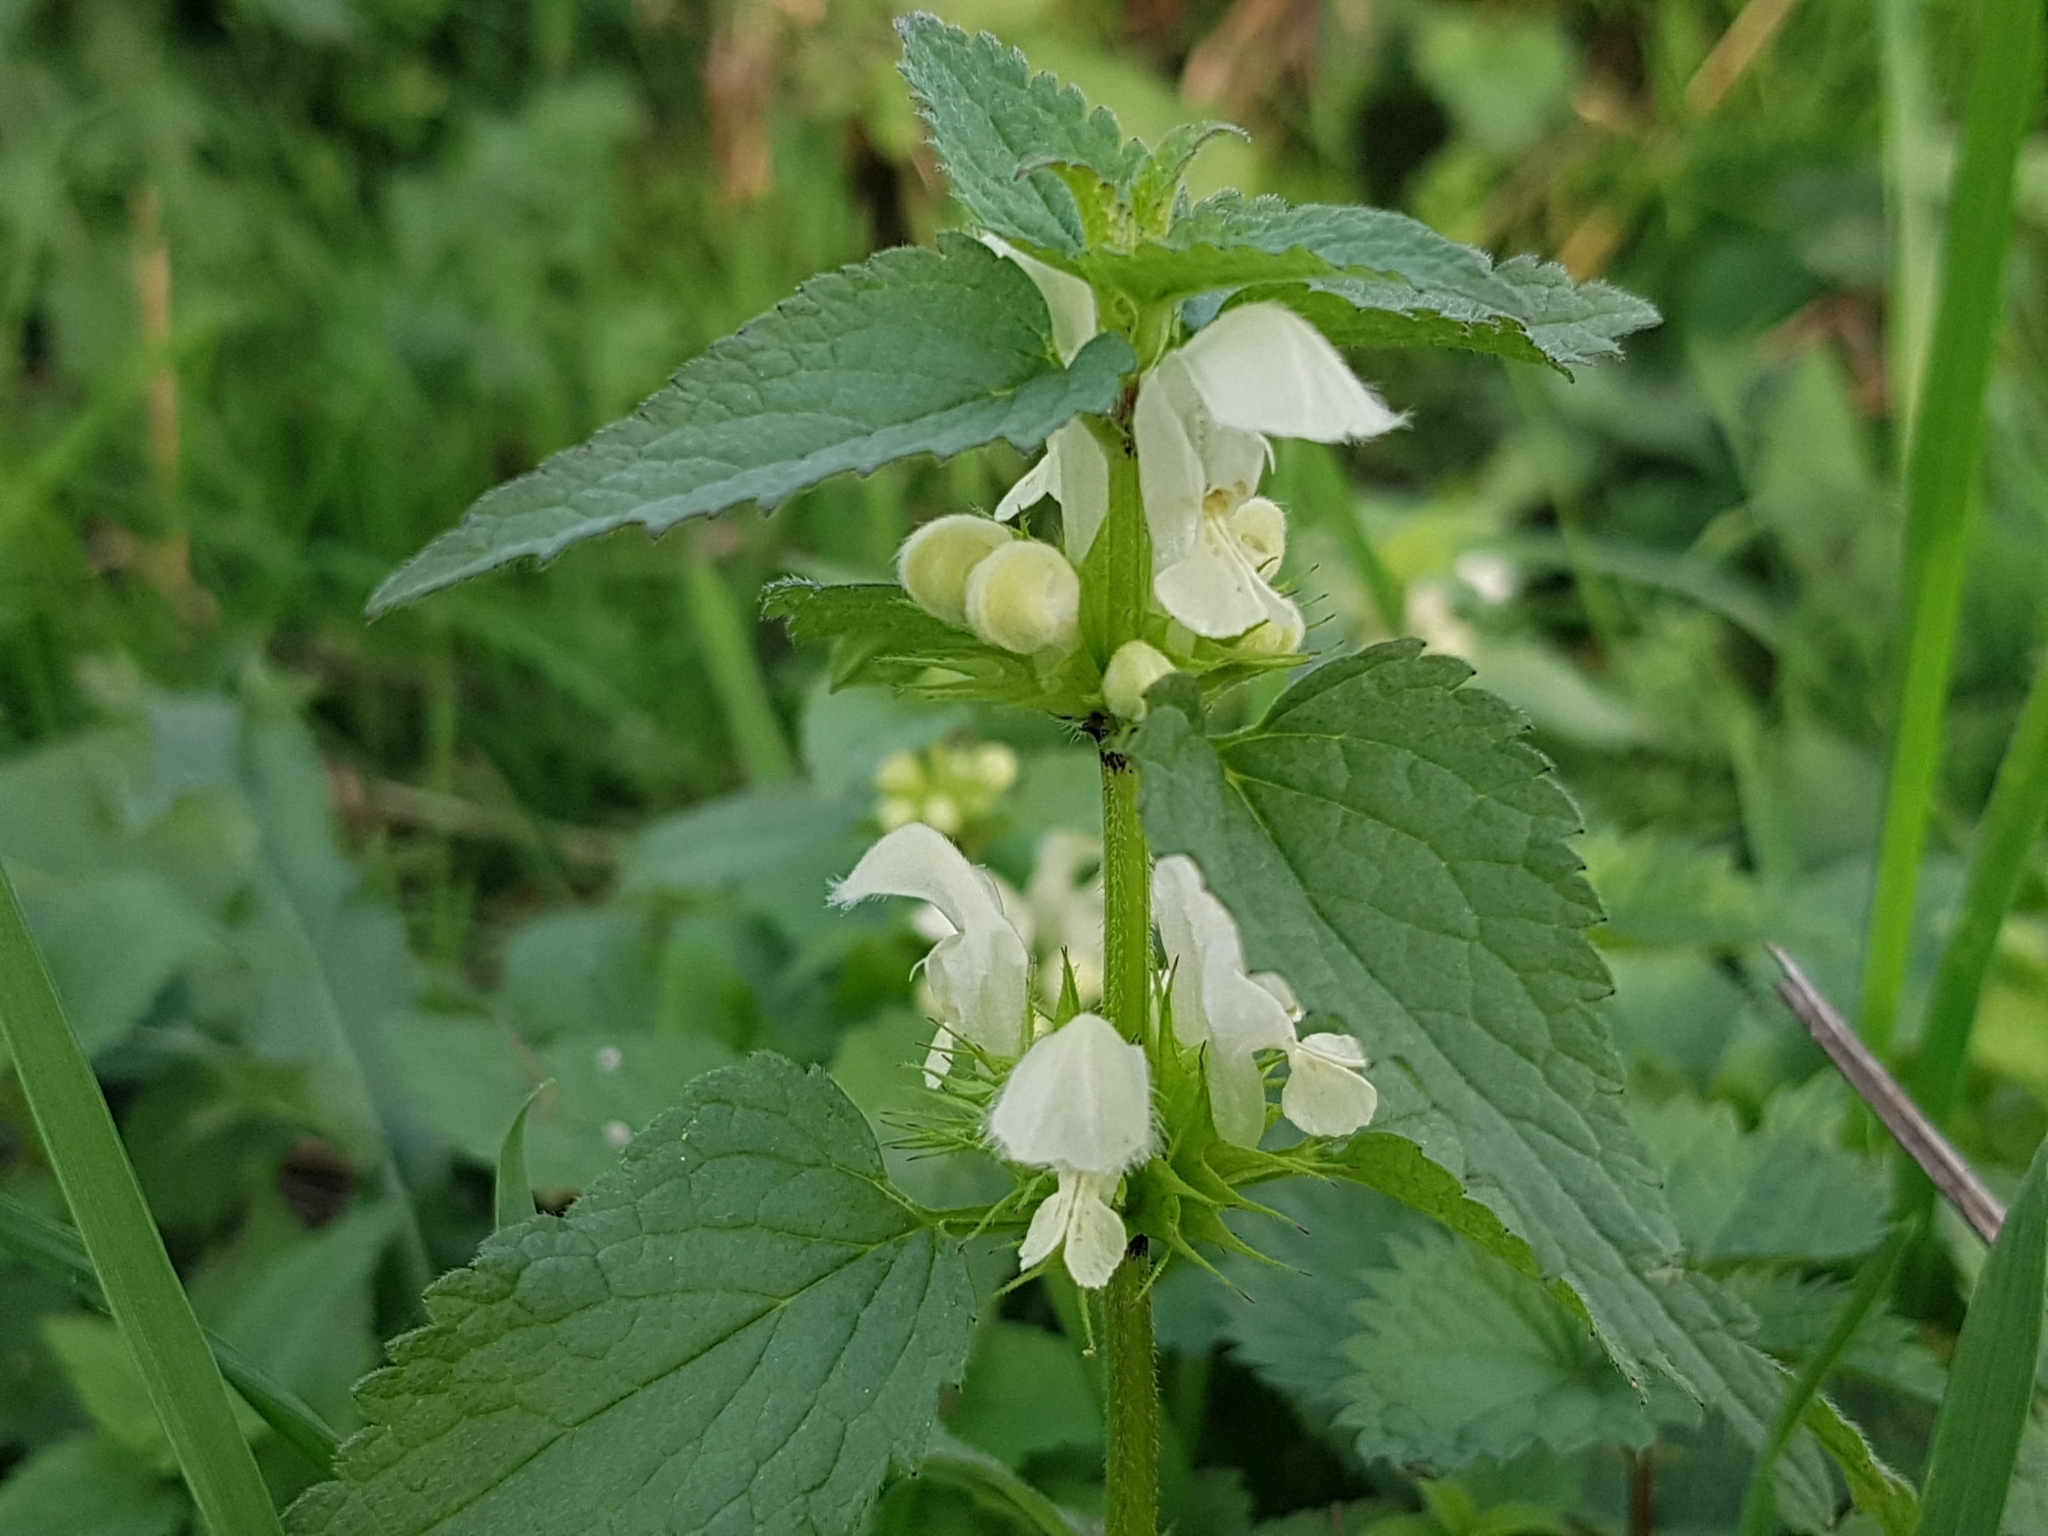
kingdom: Plantae
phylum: Tracheophyta
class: Magnoliopsida
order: Lamiales
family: Lamiaceae
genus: Lamium
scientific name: Lamium album
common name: White dead-nettle
